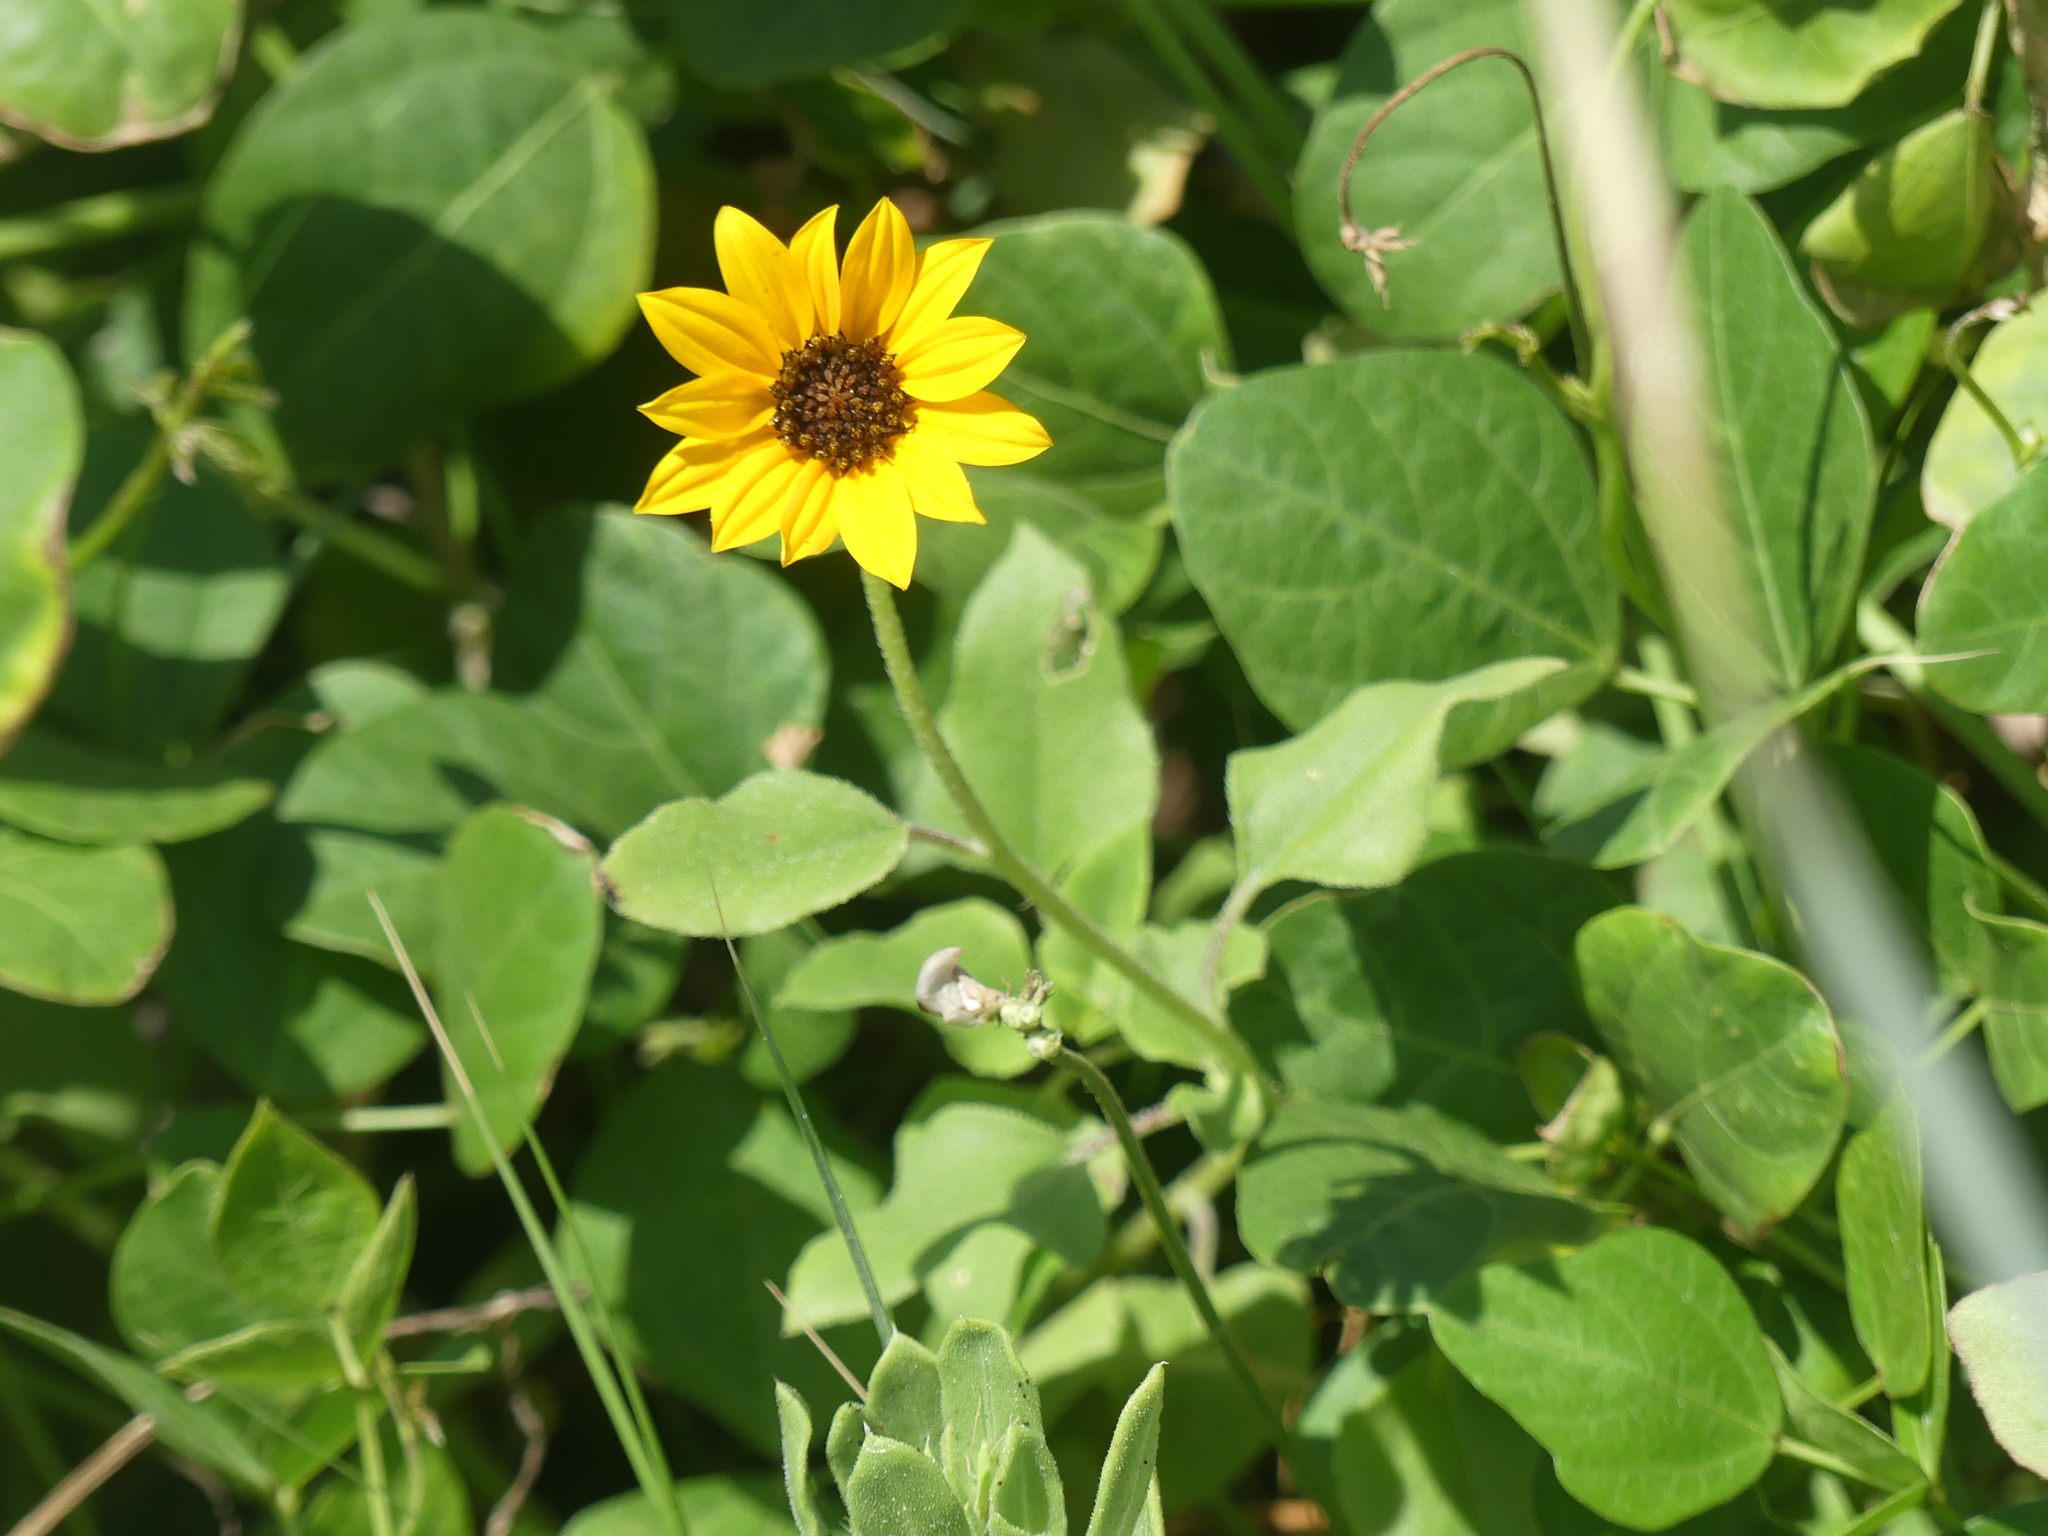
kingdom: Plantae
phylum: Tracheophyta
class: Magnoliopsida
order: Asterales
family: Asteraceae
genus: Helianthus
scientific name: Helianthus debilis
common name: Weak sunflower
